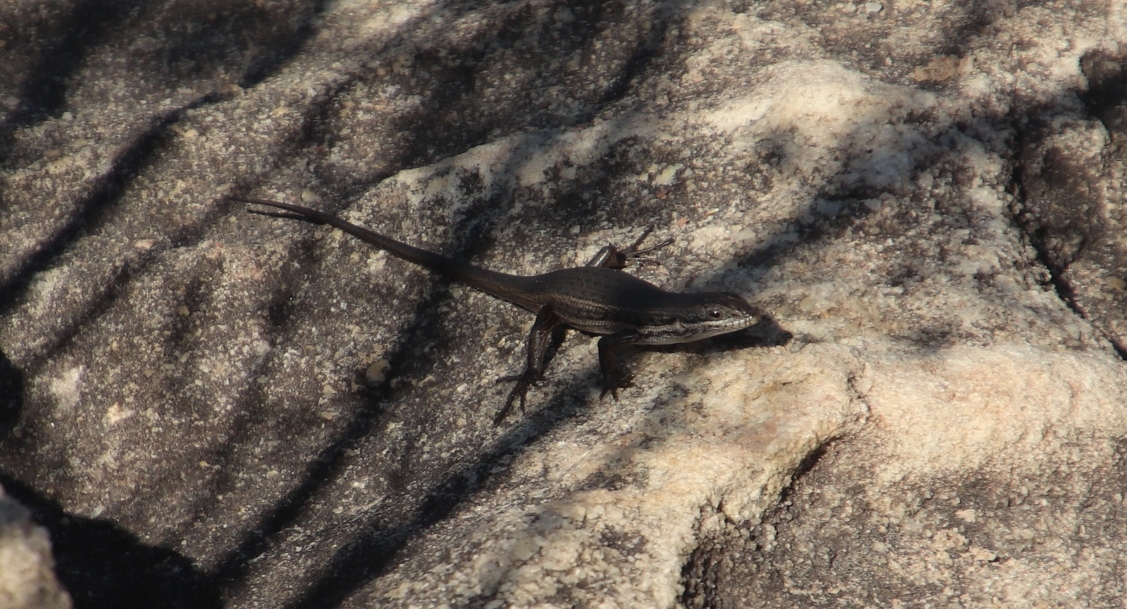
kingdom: Animalia
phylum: Chordata
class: Squamata
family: Scincidae
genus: Trachylepis
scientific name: Trachylepis variegata
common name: Variegated skink
